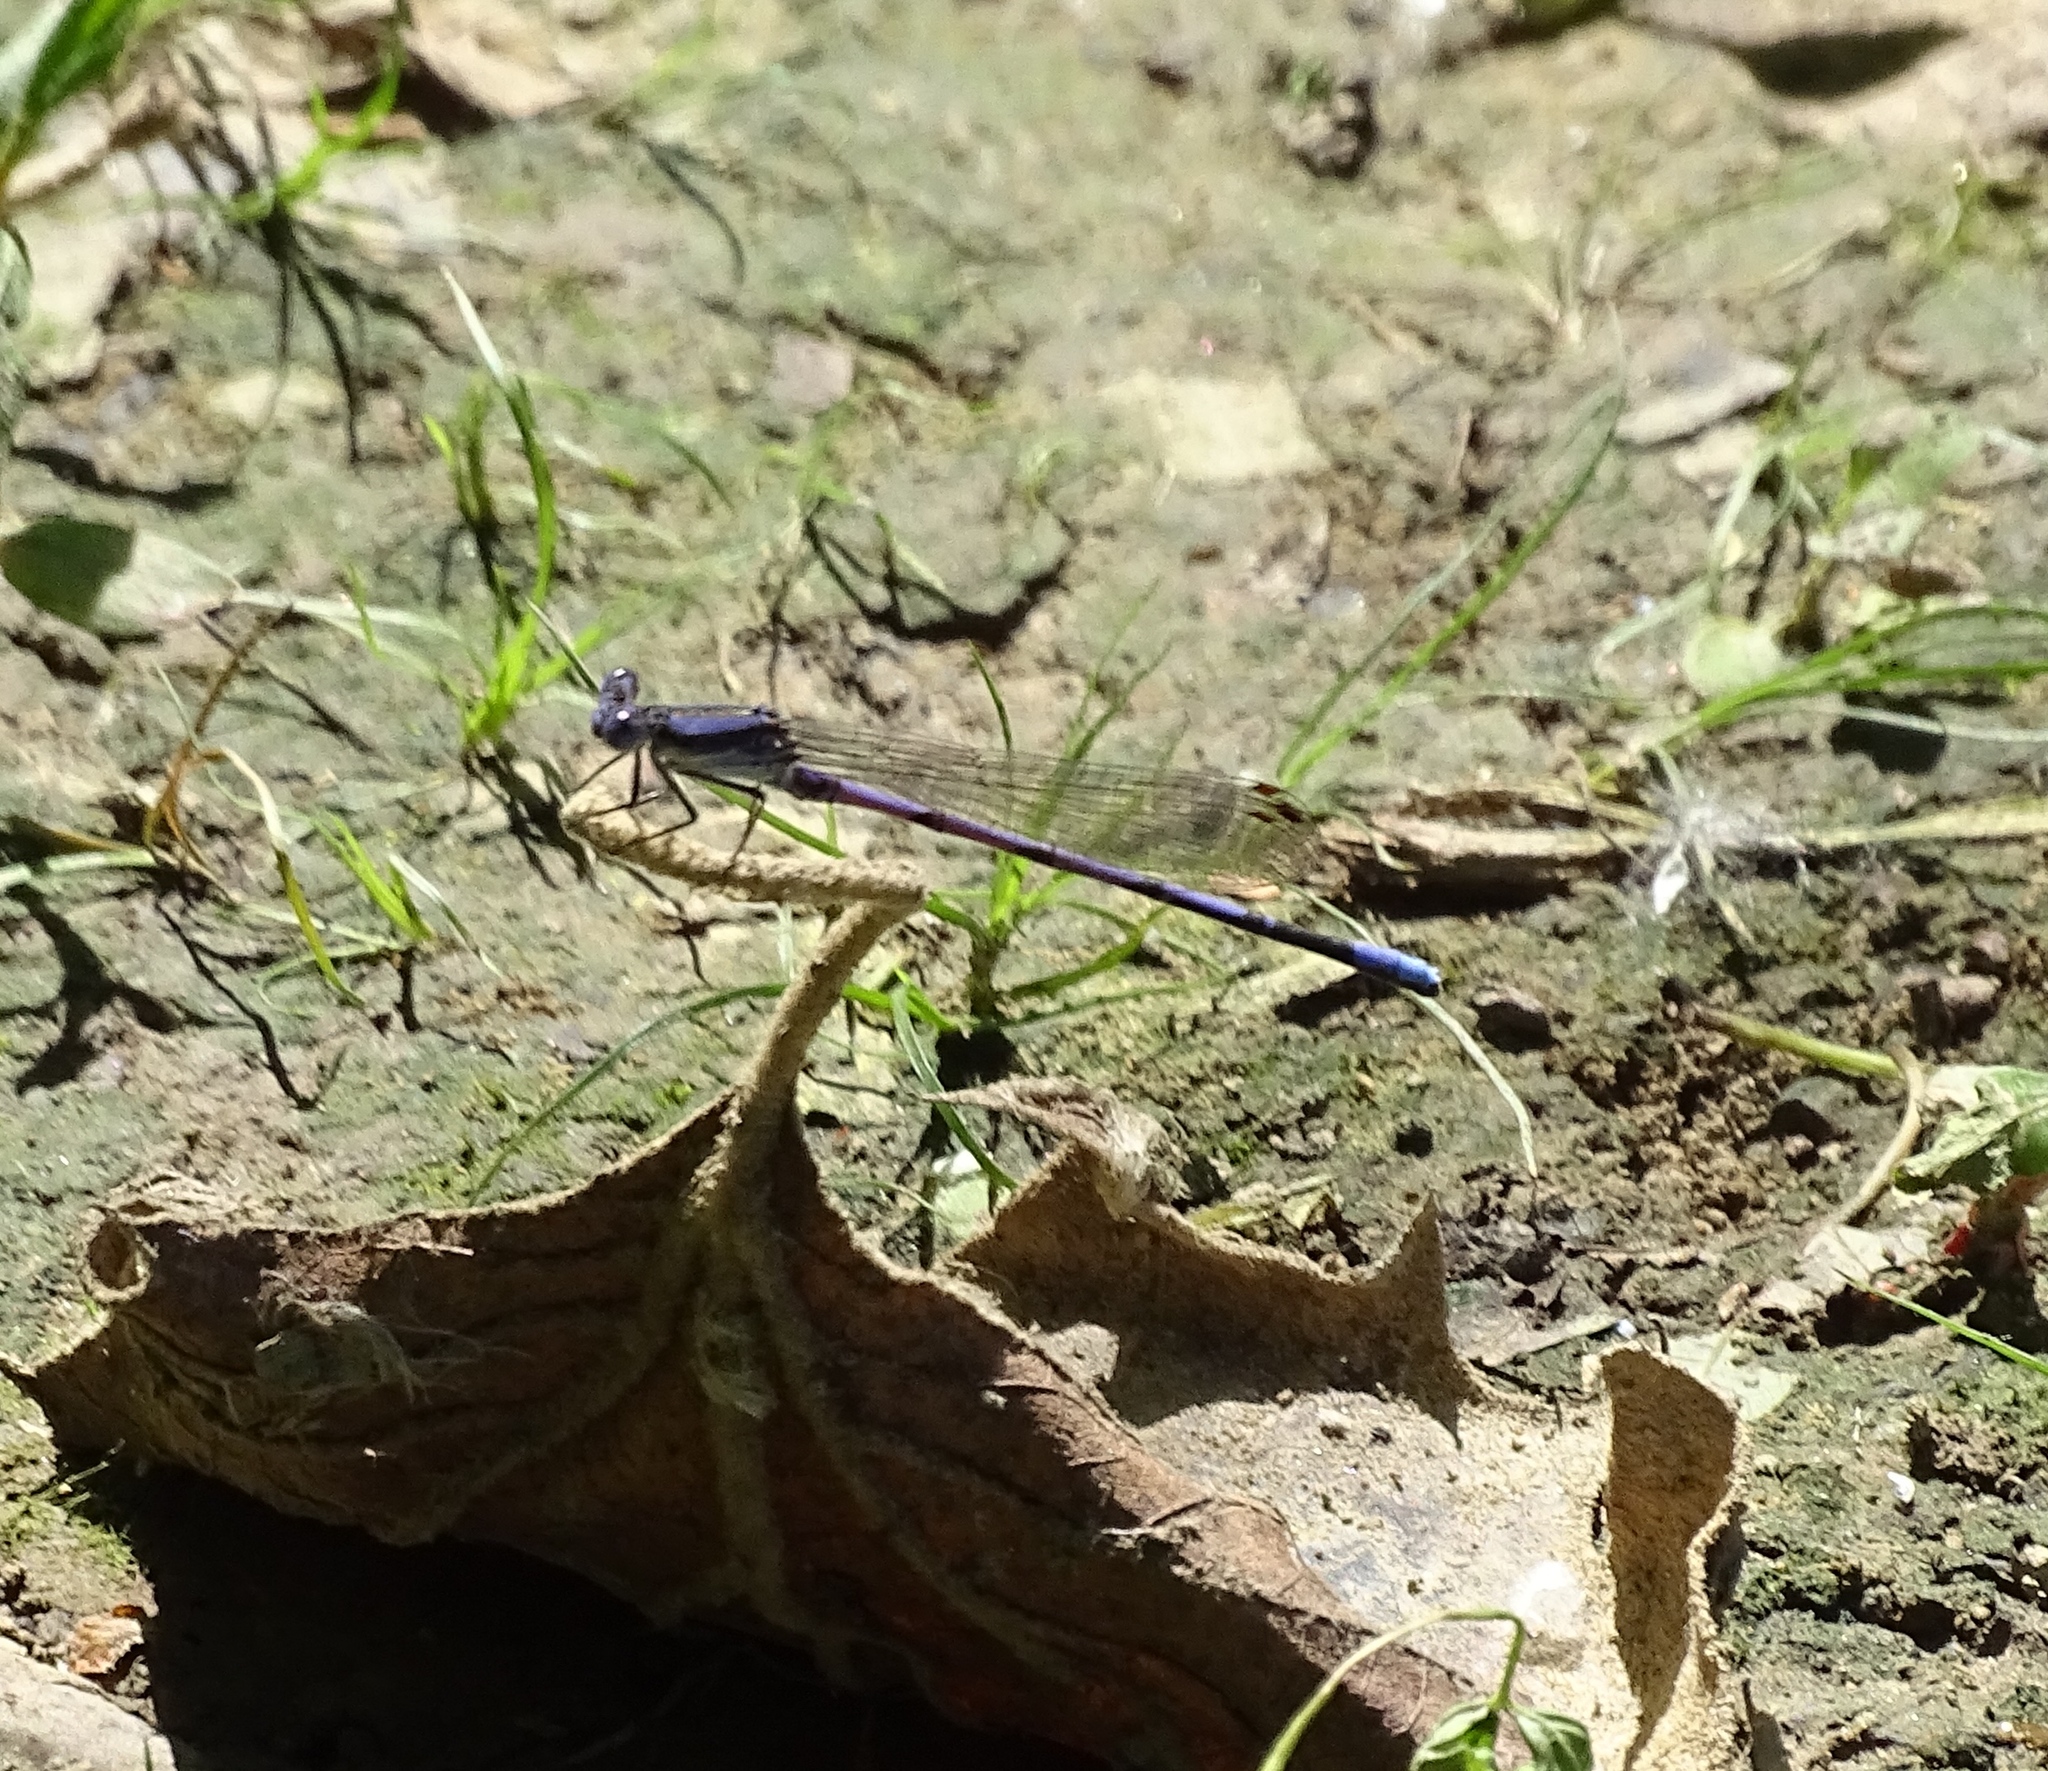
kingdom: Animalia
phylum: Arthropoda
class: Insecta
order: Odonata
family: Coenagrionidae
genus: Argia
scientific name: Argia fumipennis
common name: Variable dancer
